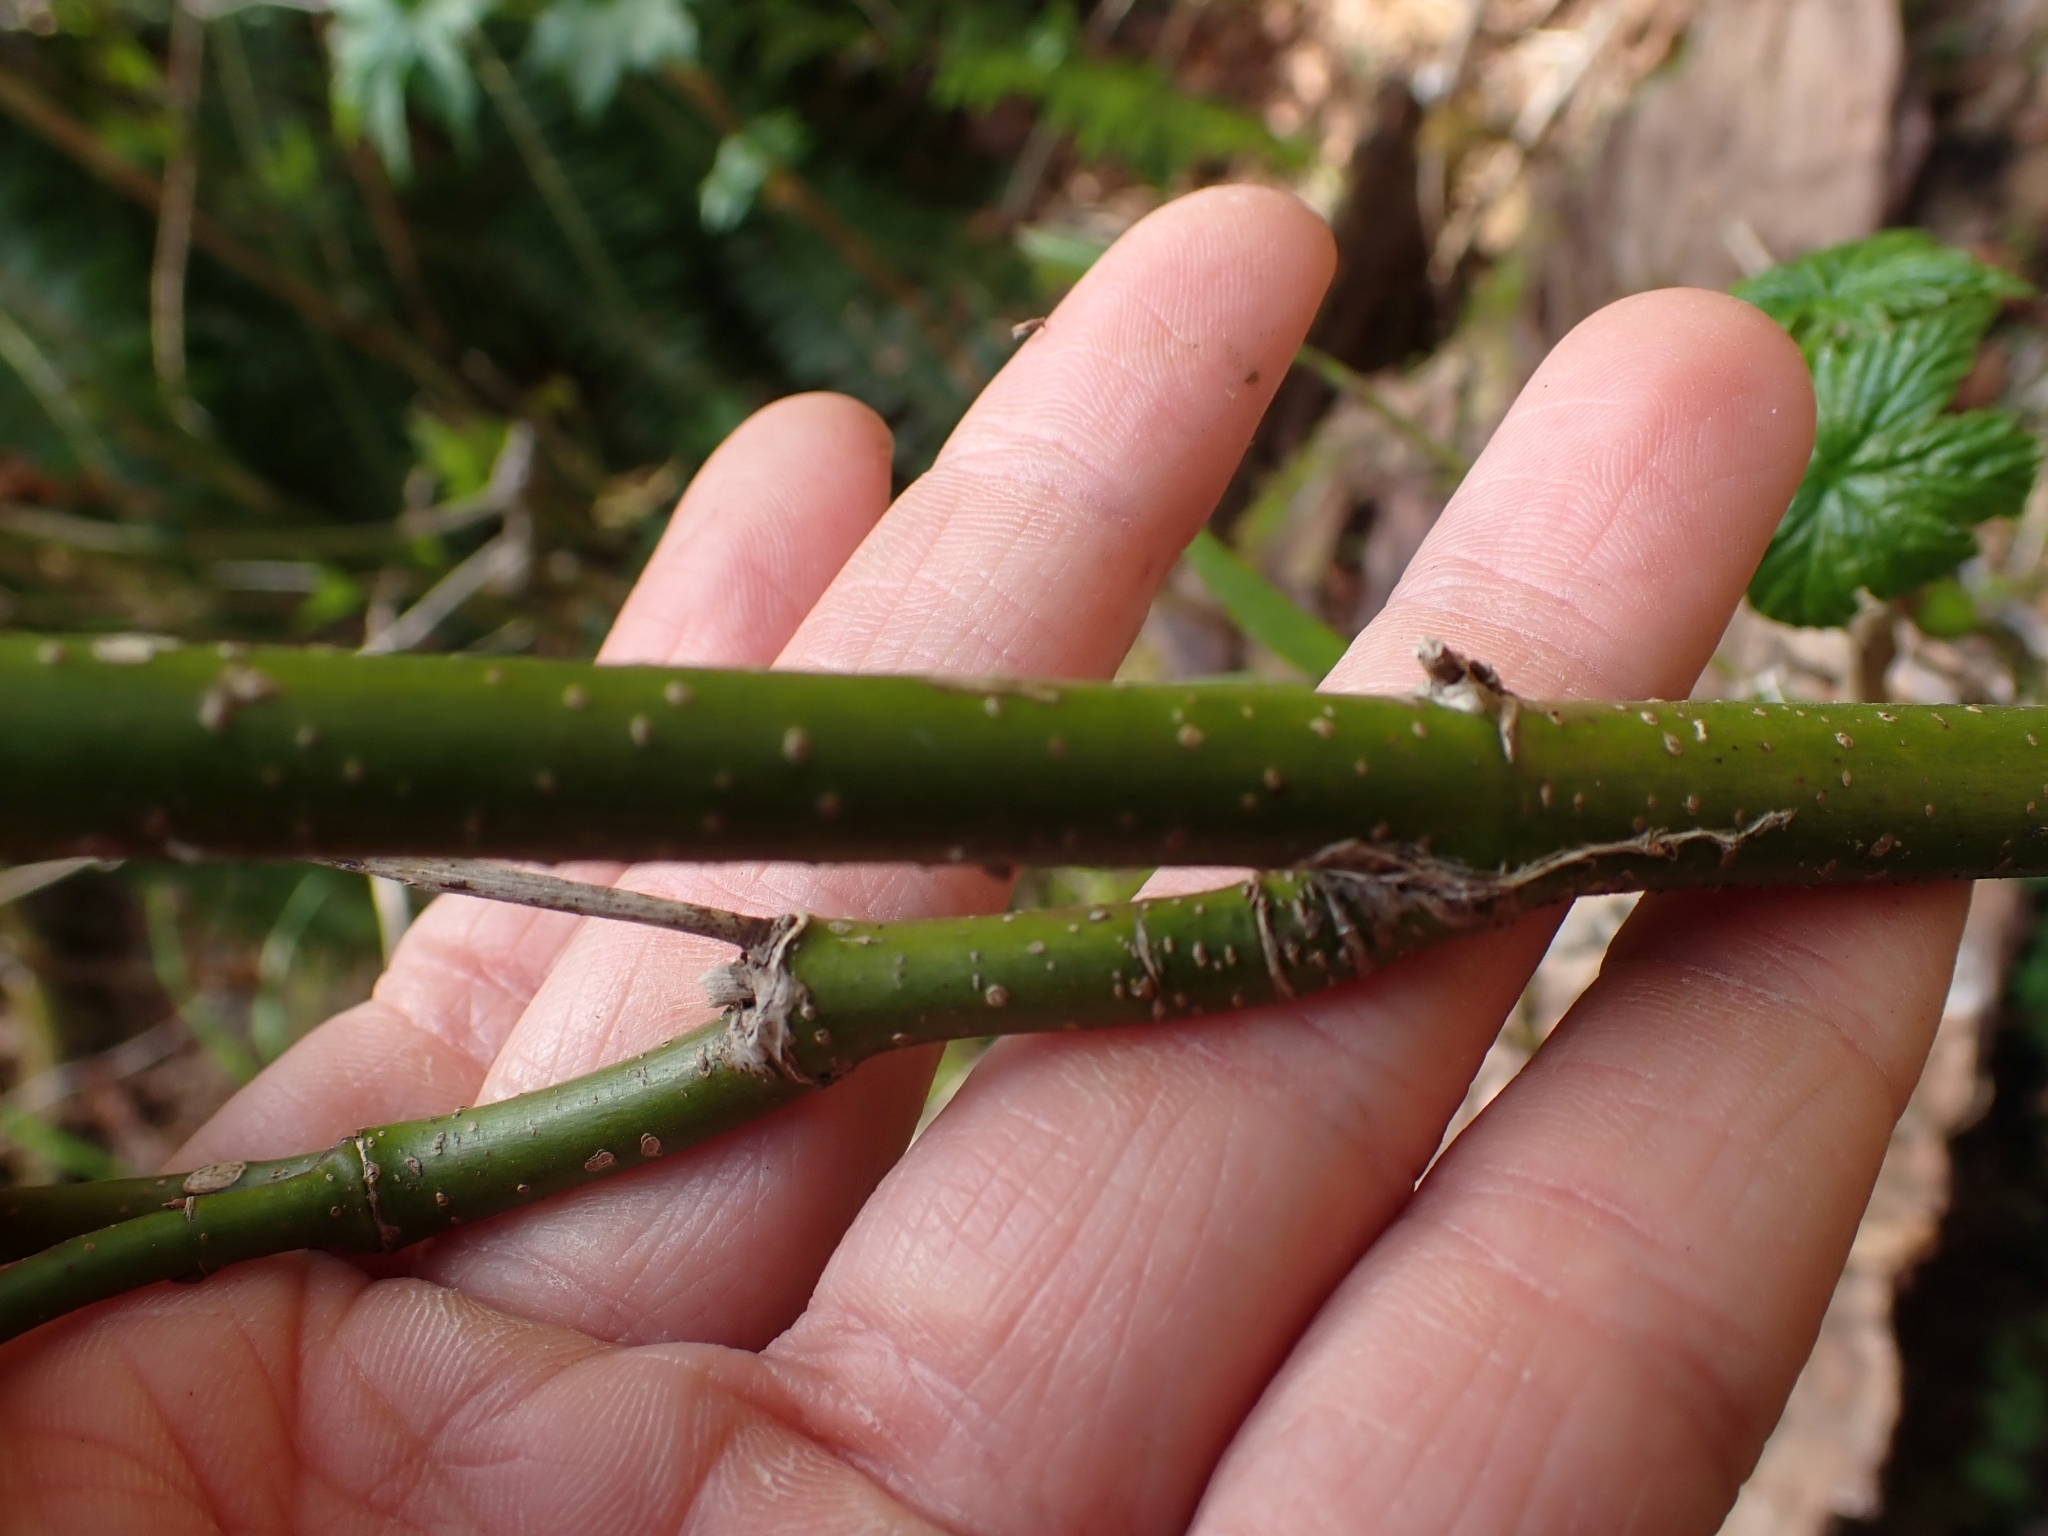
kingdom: Plantae
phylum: Tracheophyta
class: Magnoliopsida
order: Cornales
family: Cornaceae
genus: Cornus
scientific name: Cornus sericea
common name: Red-osier dogwood
